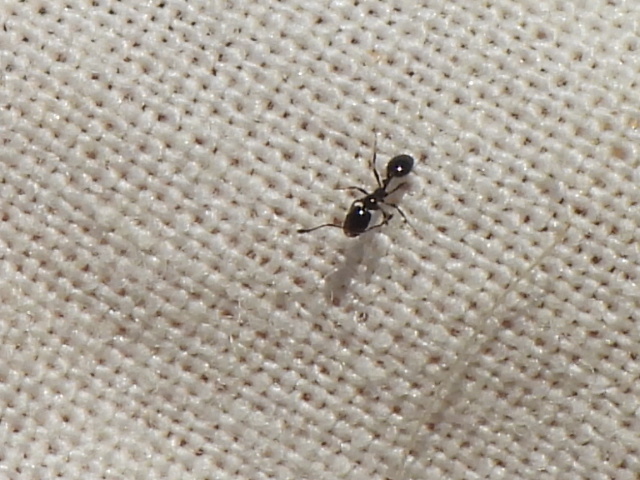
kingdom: Animalia
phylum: Arthropoda
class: Insecta
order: Hymenoptera
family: Formicidae
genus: Monomorium
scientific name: Monomorium minimum
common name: Little black ant
